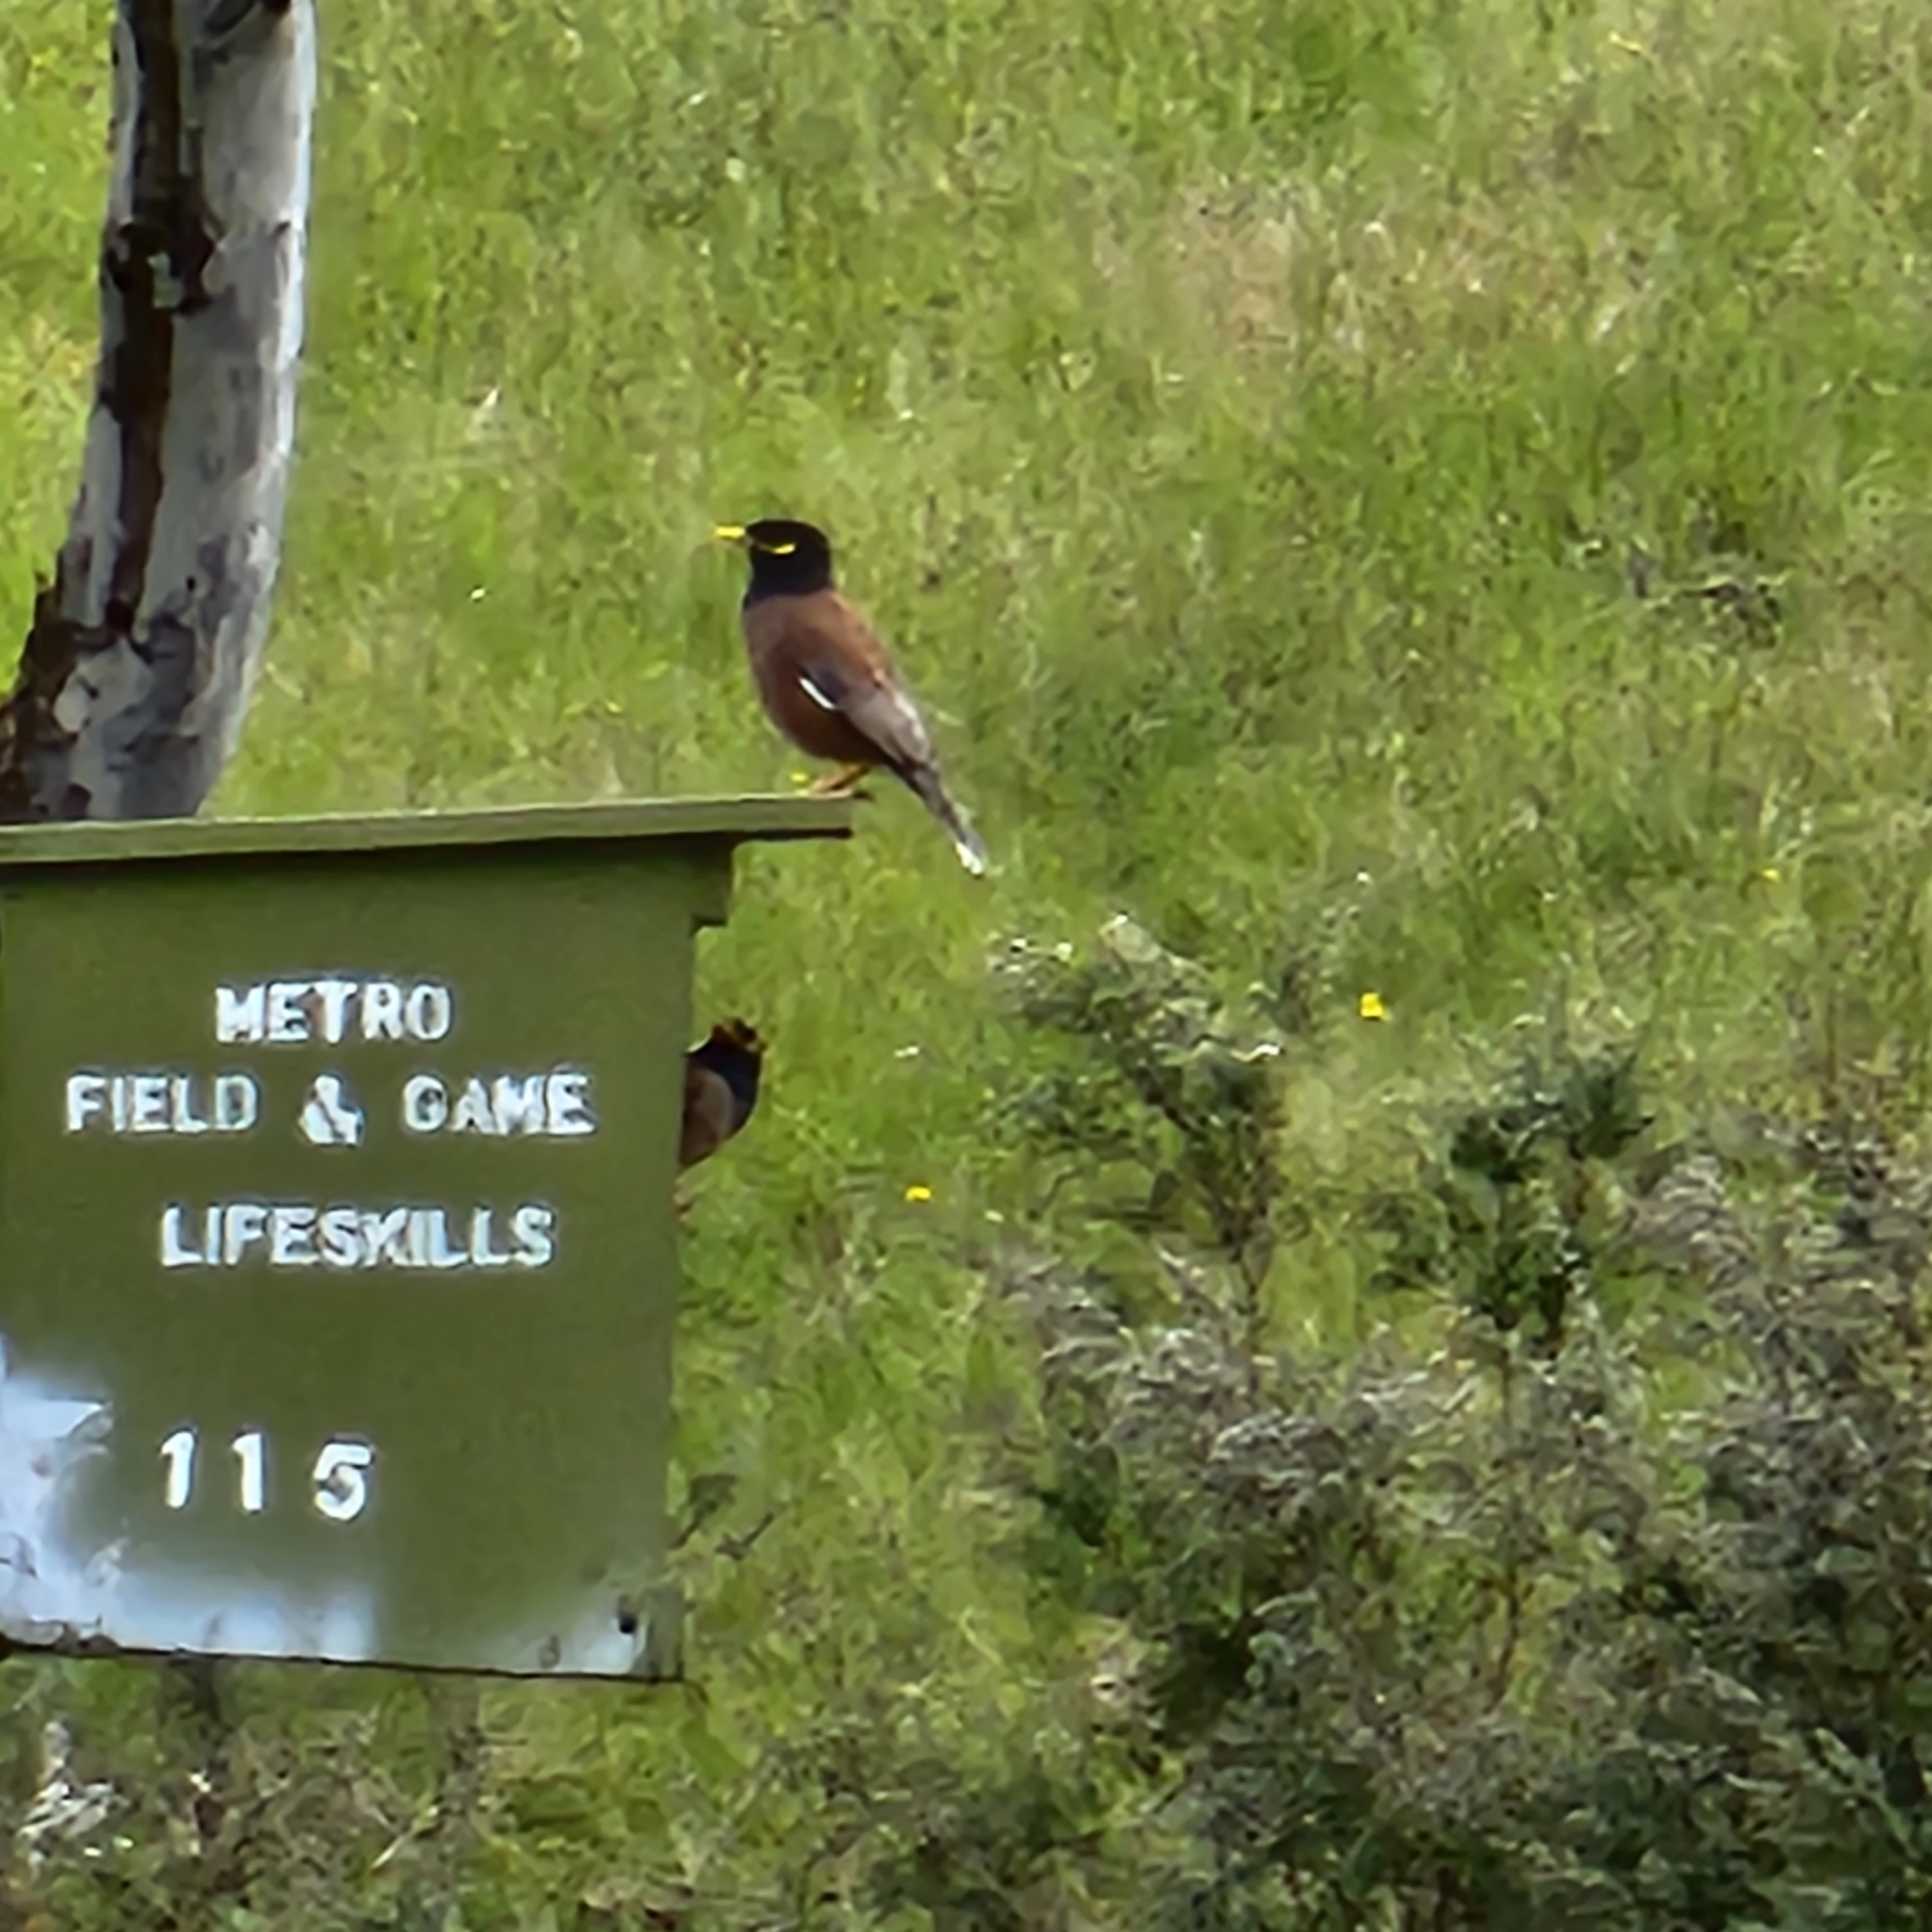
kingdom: Animalia
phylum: Chordata
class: Aves
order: Passeriformes
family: Sturnidae
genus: Acridotheres
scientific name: Acridotheres tristis
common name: Common myna
